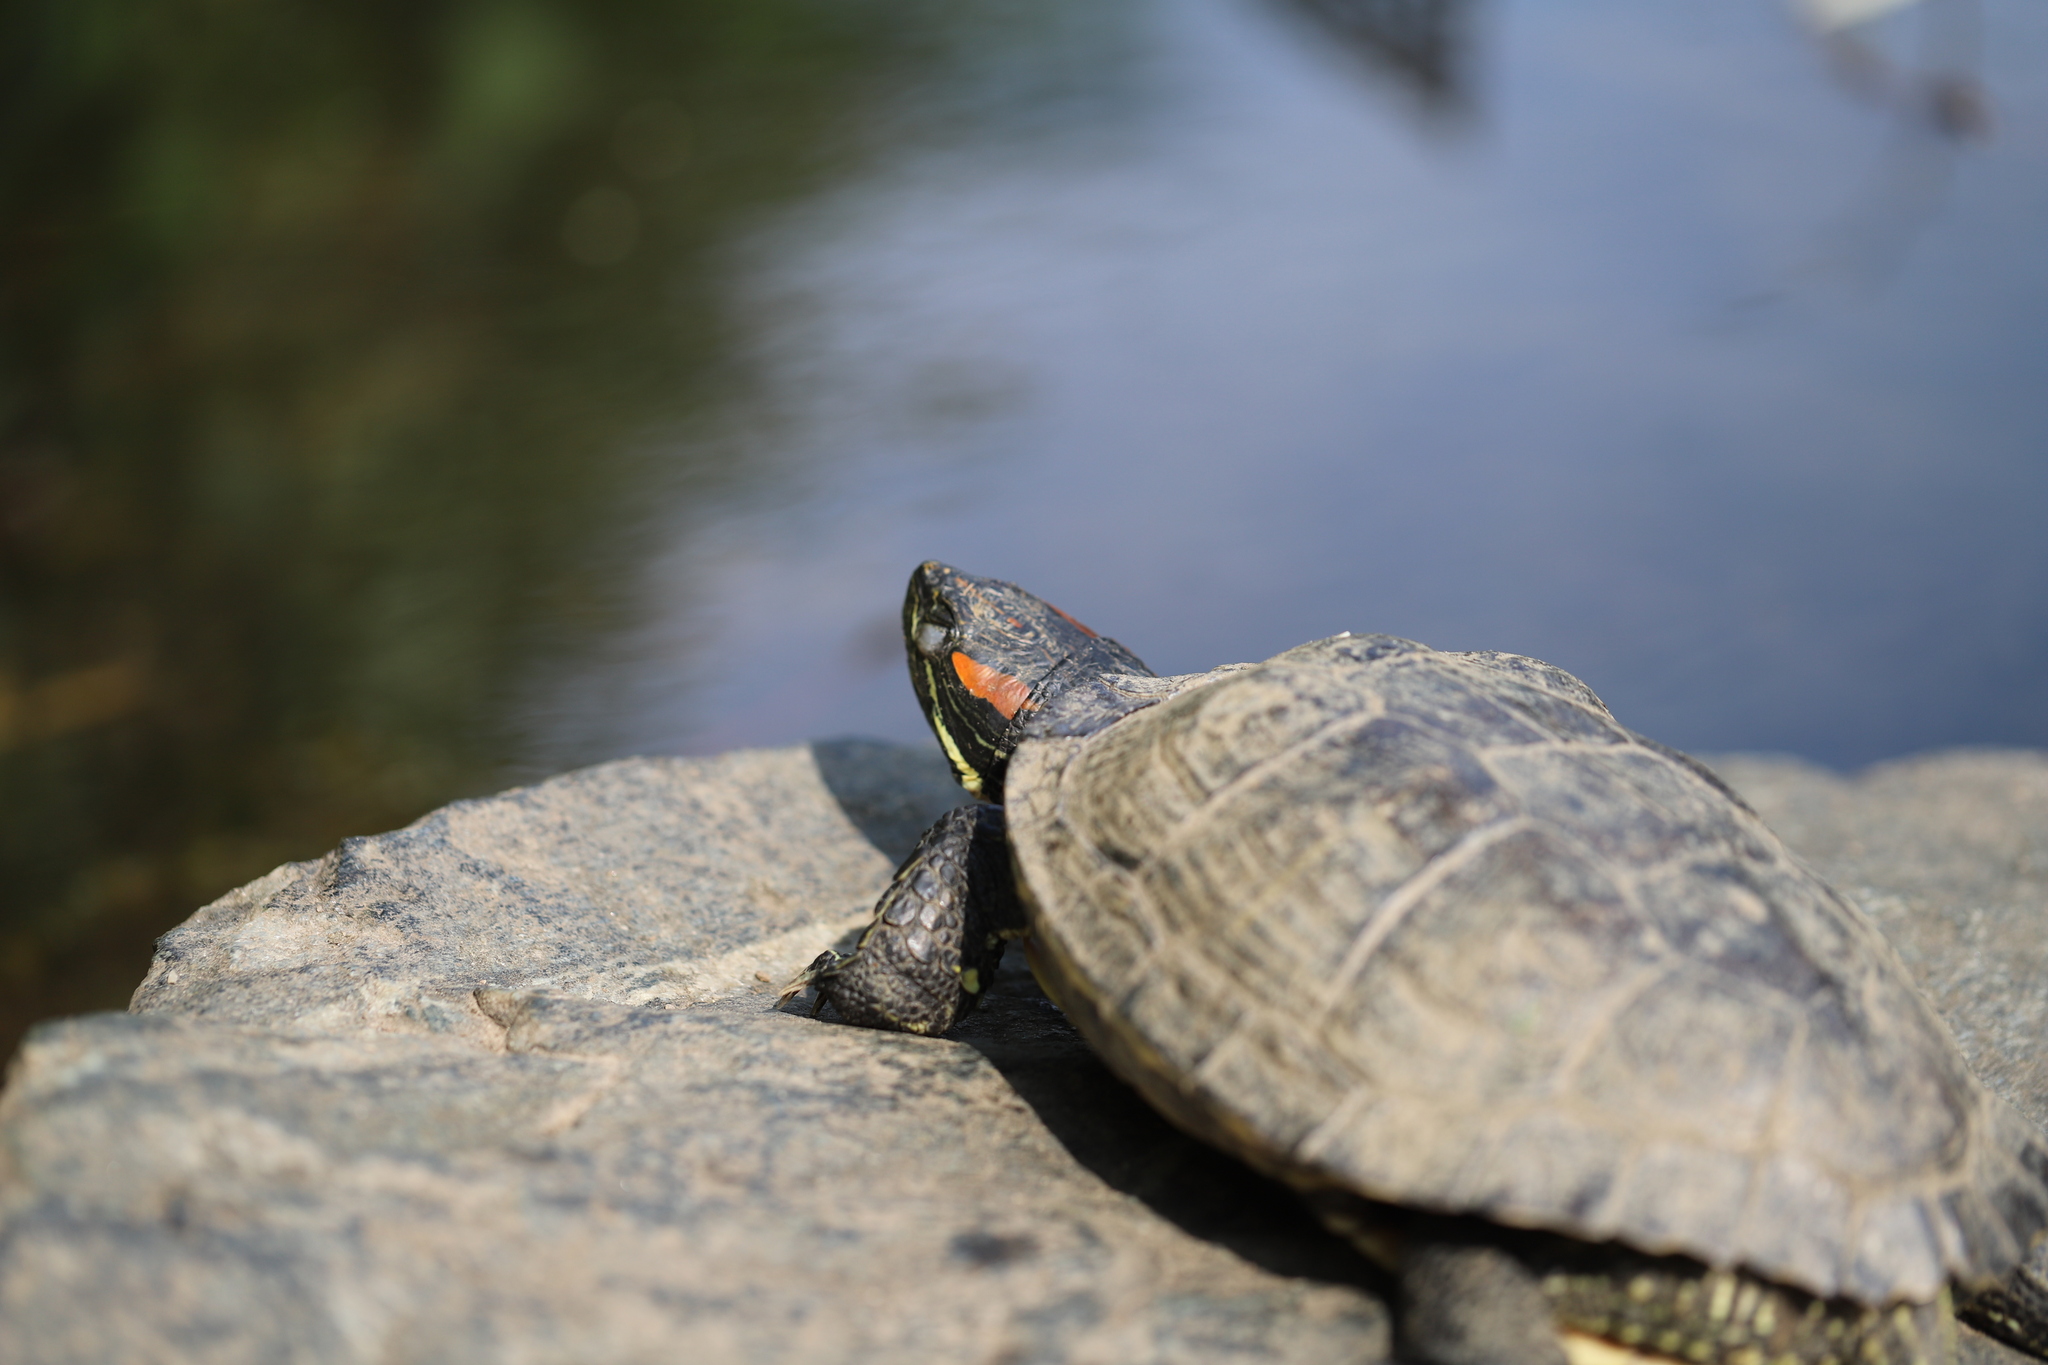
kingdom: Animalia
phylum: Chordata
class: Testudines
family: Emydidae
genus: Trachemys
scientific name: Trachemys scripta
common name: Slider
